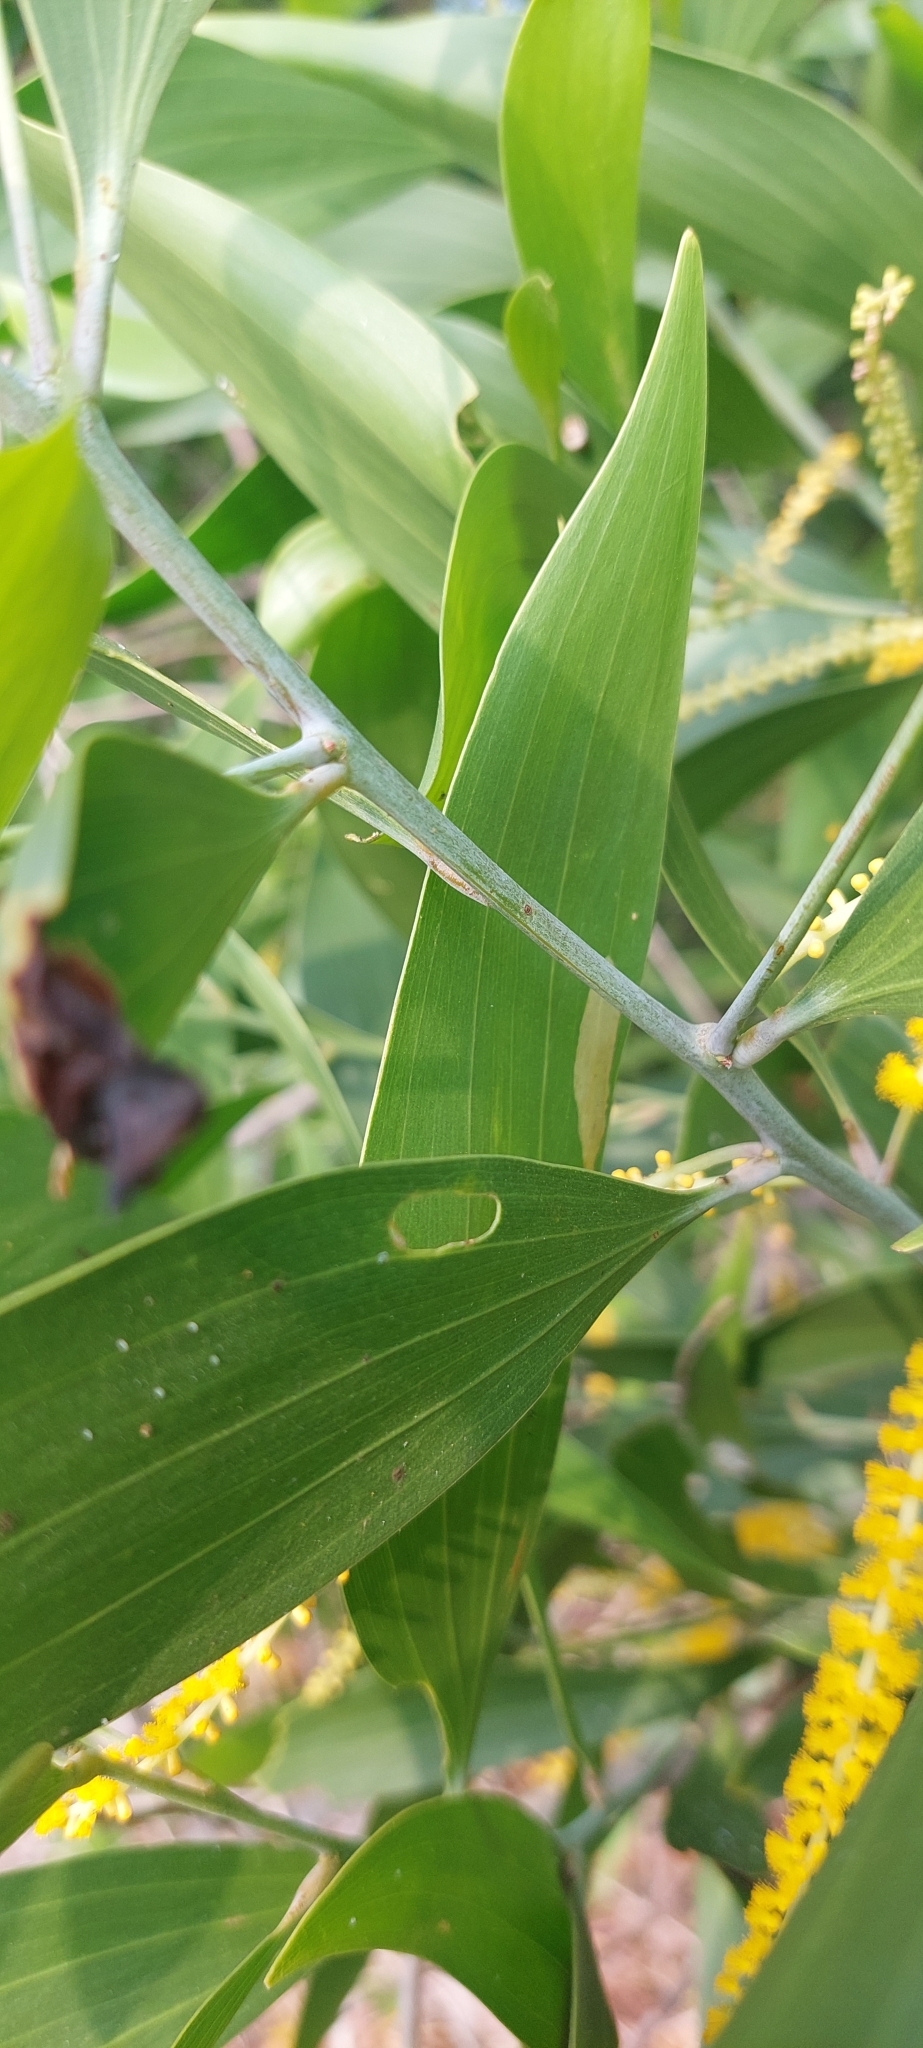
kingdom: Plantae
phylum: Tracheophyta
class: Magnoliopsida
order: Fabales
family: Fabaceae
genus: Acacia
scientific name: Acacia auriculiformis
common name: Earleaf acacia
